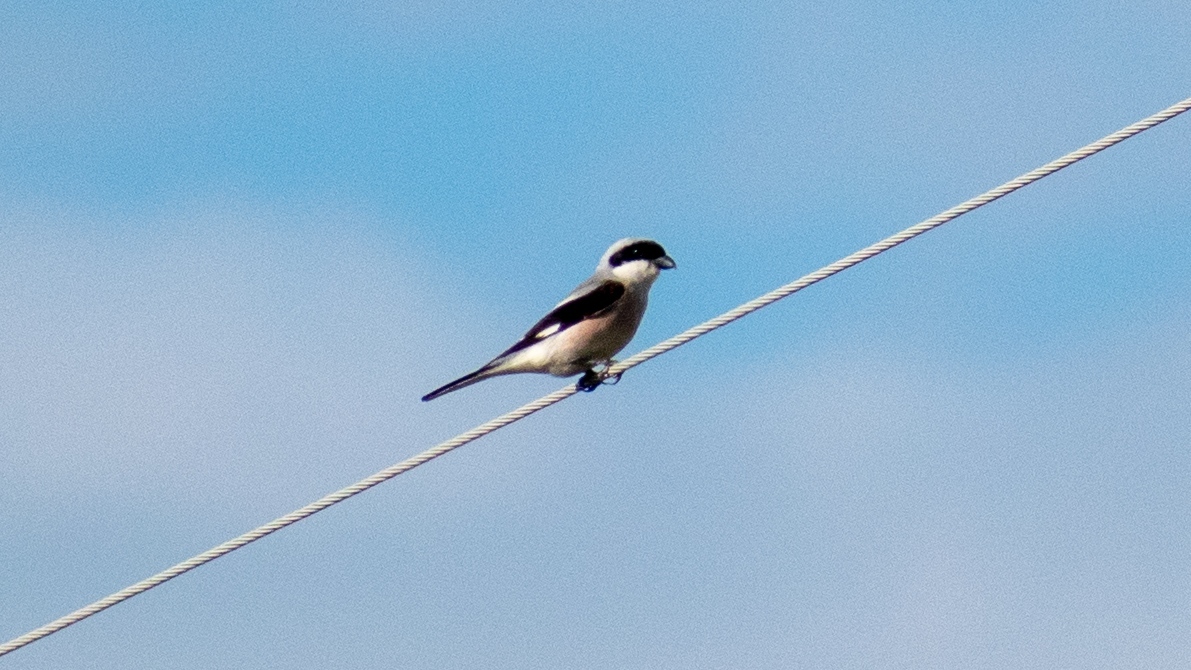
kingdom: Animalia
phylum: Chordata
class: Aves
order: Passeriformes
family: Laniidae
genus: Lanius
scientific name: Lanius minor
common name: Lesser grey shrike
